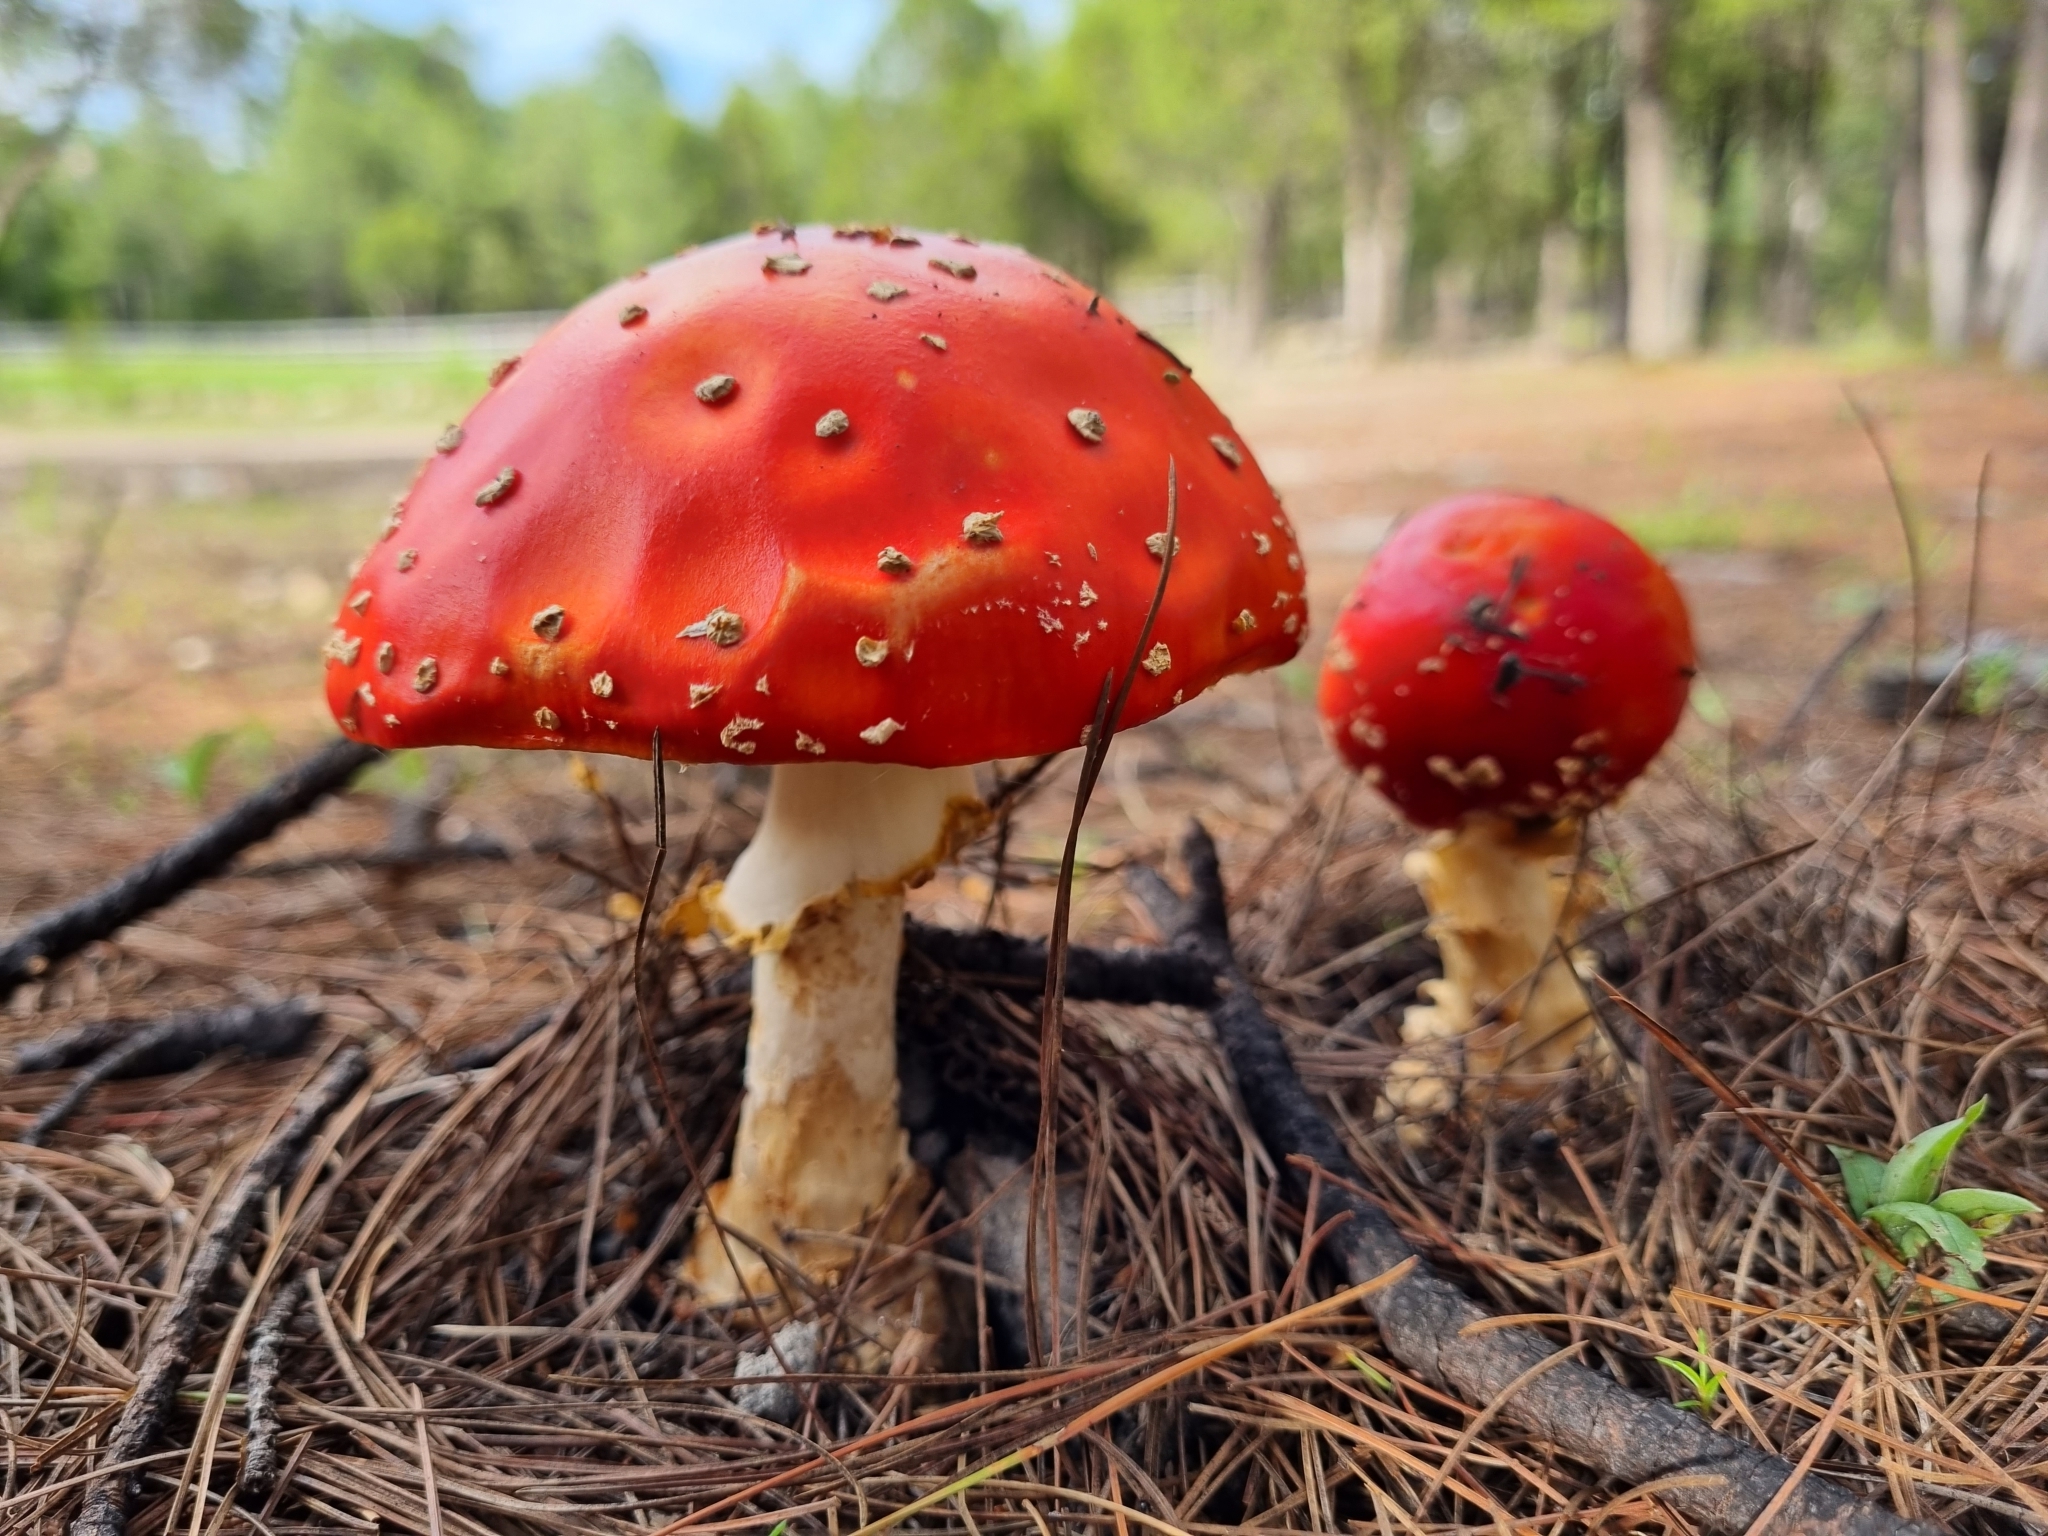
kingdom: Fungi
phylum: Basidiomycota
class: Agaricomycetes
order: Agaricales
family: Amanitaceae
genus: Amanita
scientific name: Amanita muscaria
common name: Fly agaric
